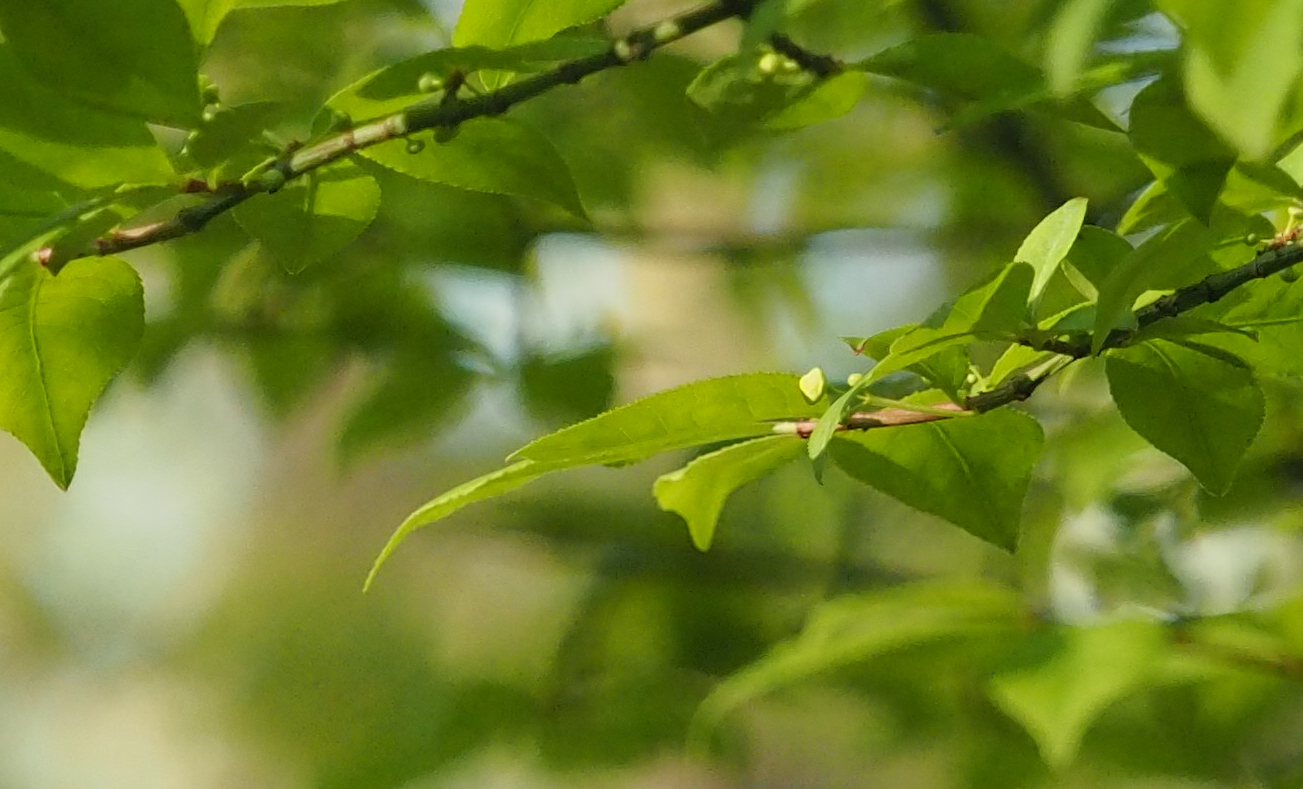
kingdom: Plantae
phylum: Tracheophyta
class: Magnoliopsida
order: Celastrales
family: Celastraceae
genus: Euonymus
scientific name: Euonymus alatus
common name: Winged euonymus
